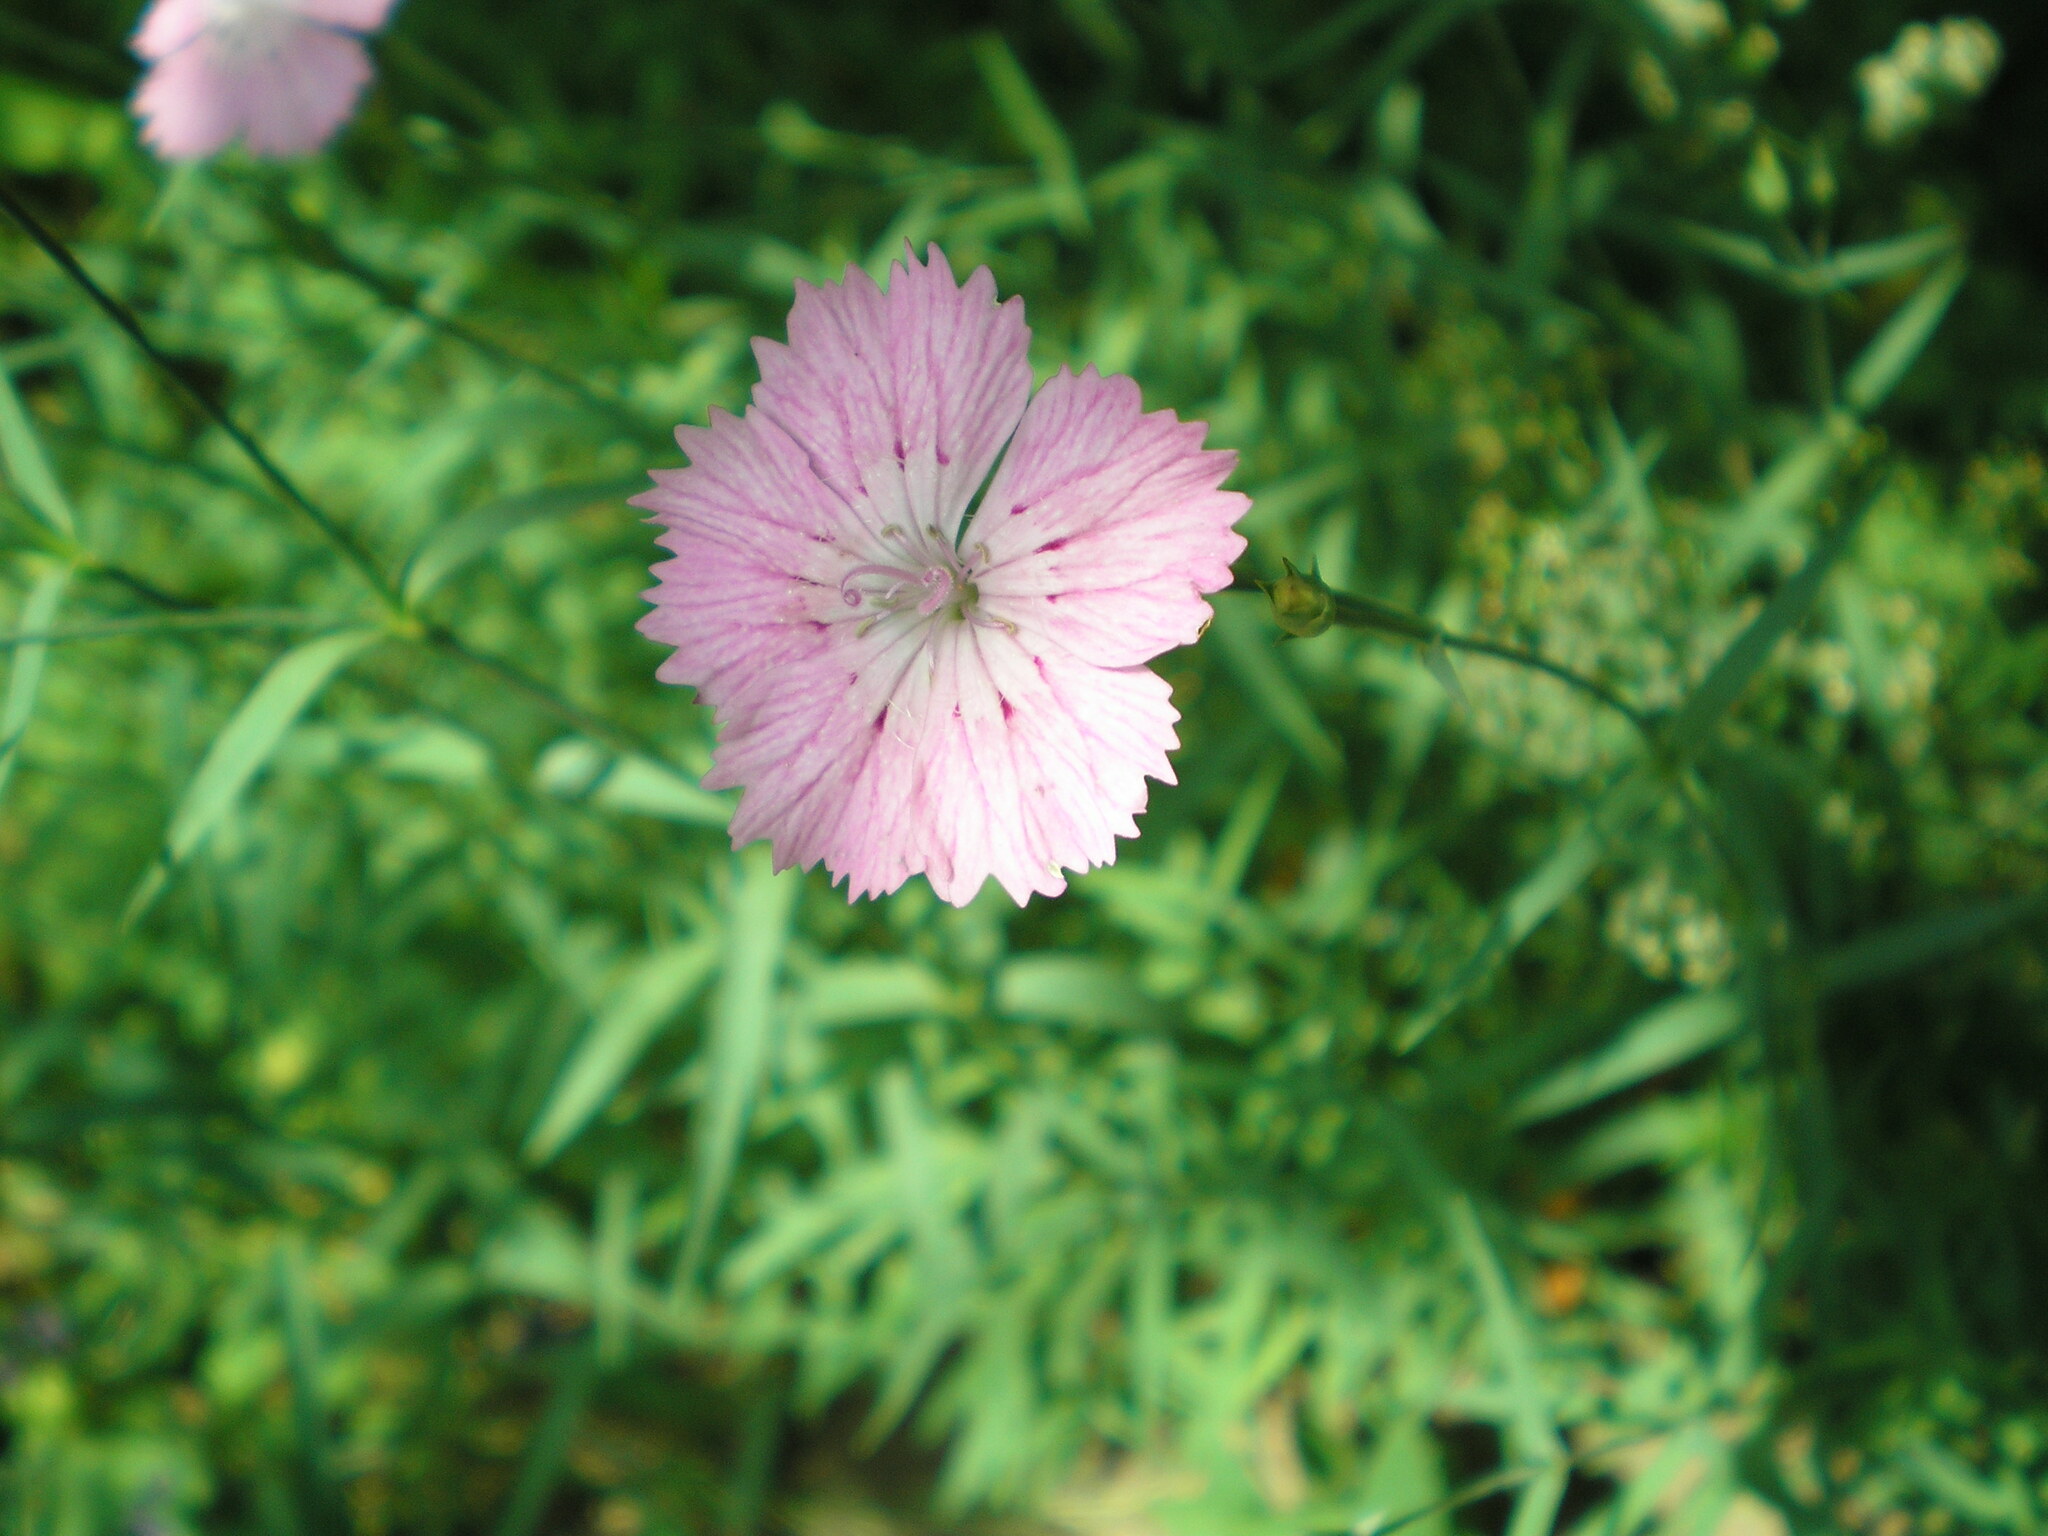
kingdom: Plantae
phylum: Tracheophyta
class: Magnoliopsida
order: Caryophyllales
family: Caryophyllaceae
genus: Dianthus
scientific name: Dianthus chinensis
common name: Rainbow pink
